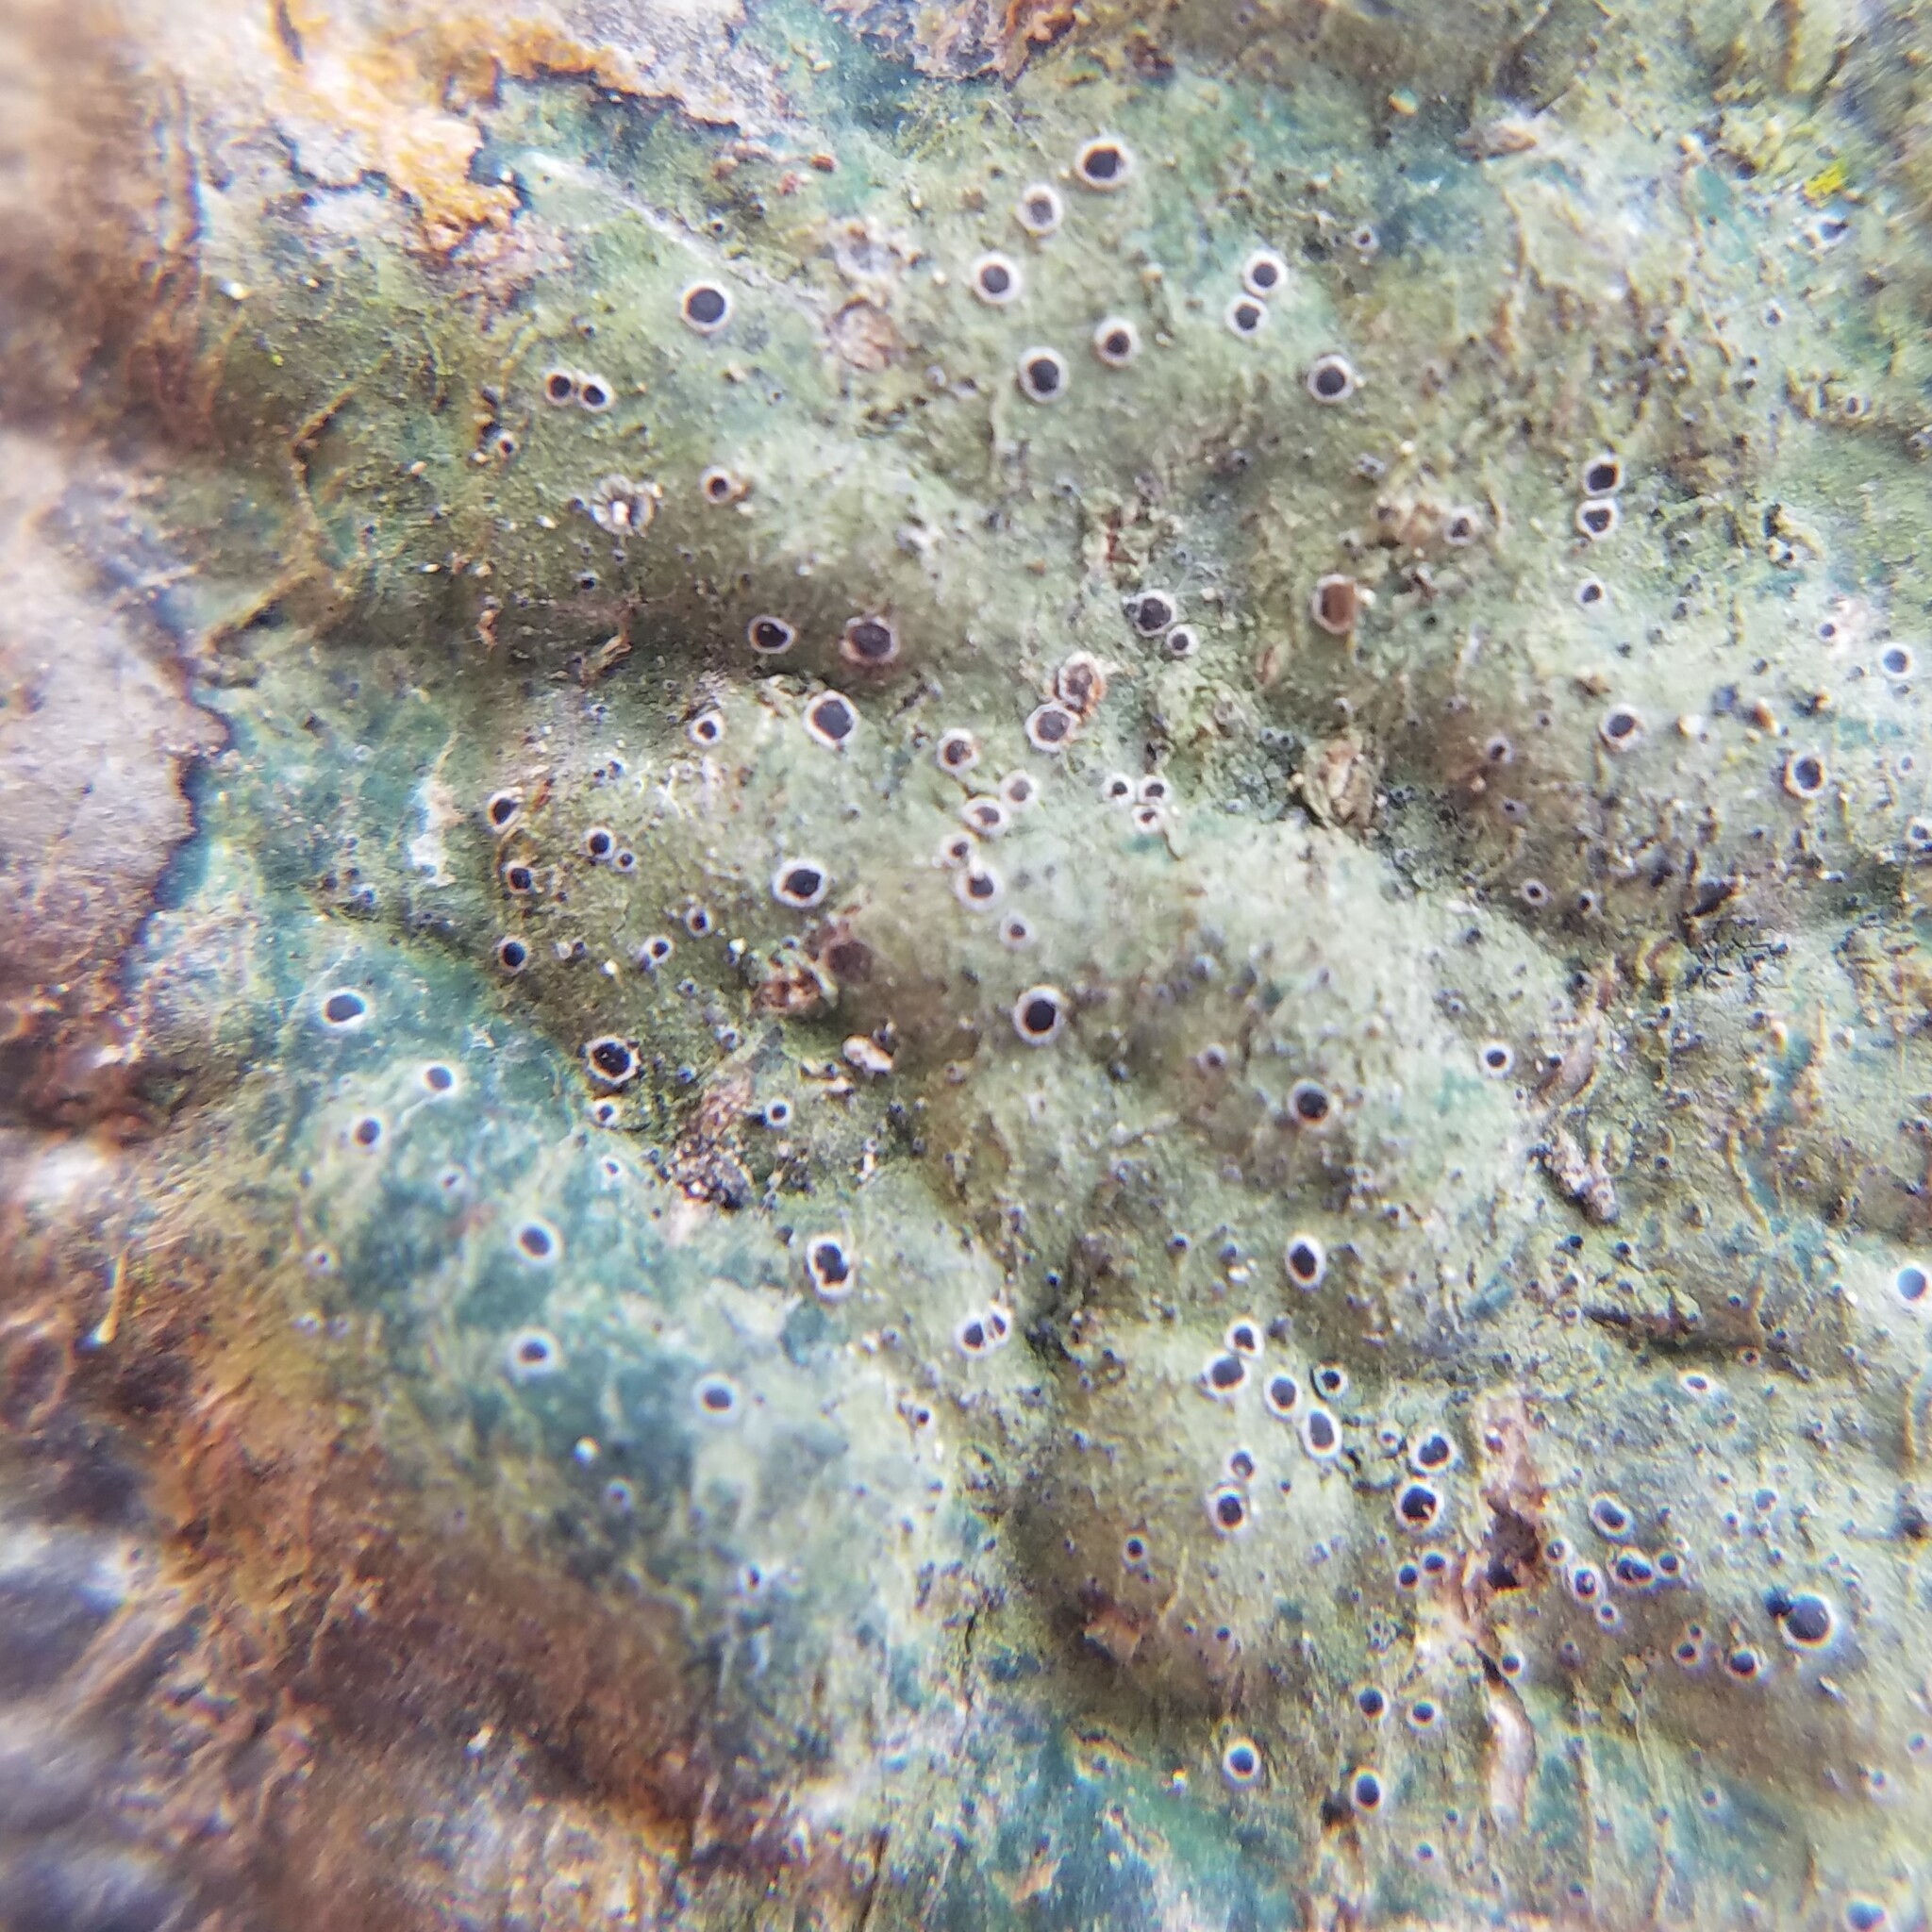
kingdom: Fungi
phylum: Ascomycota
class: Lecanoromycetes
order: Lecanorales
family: Byssolomataceae
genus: Byssoloma
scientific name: Byssoloma leucoblepharum
